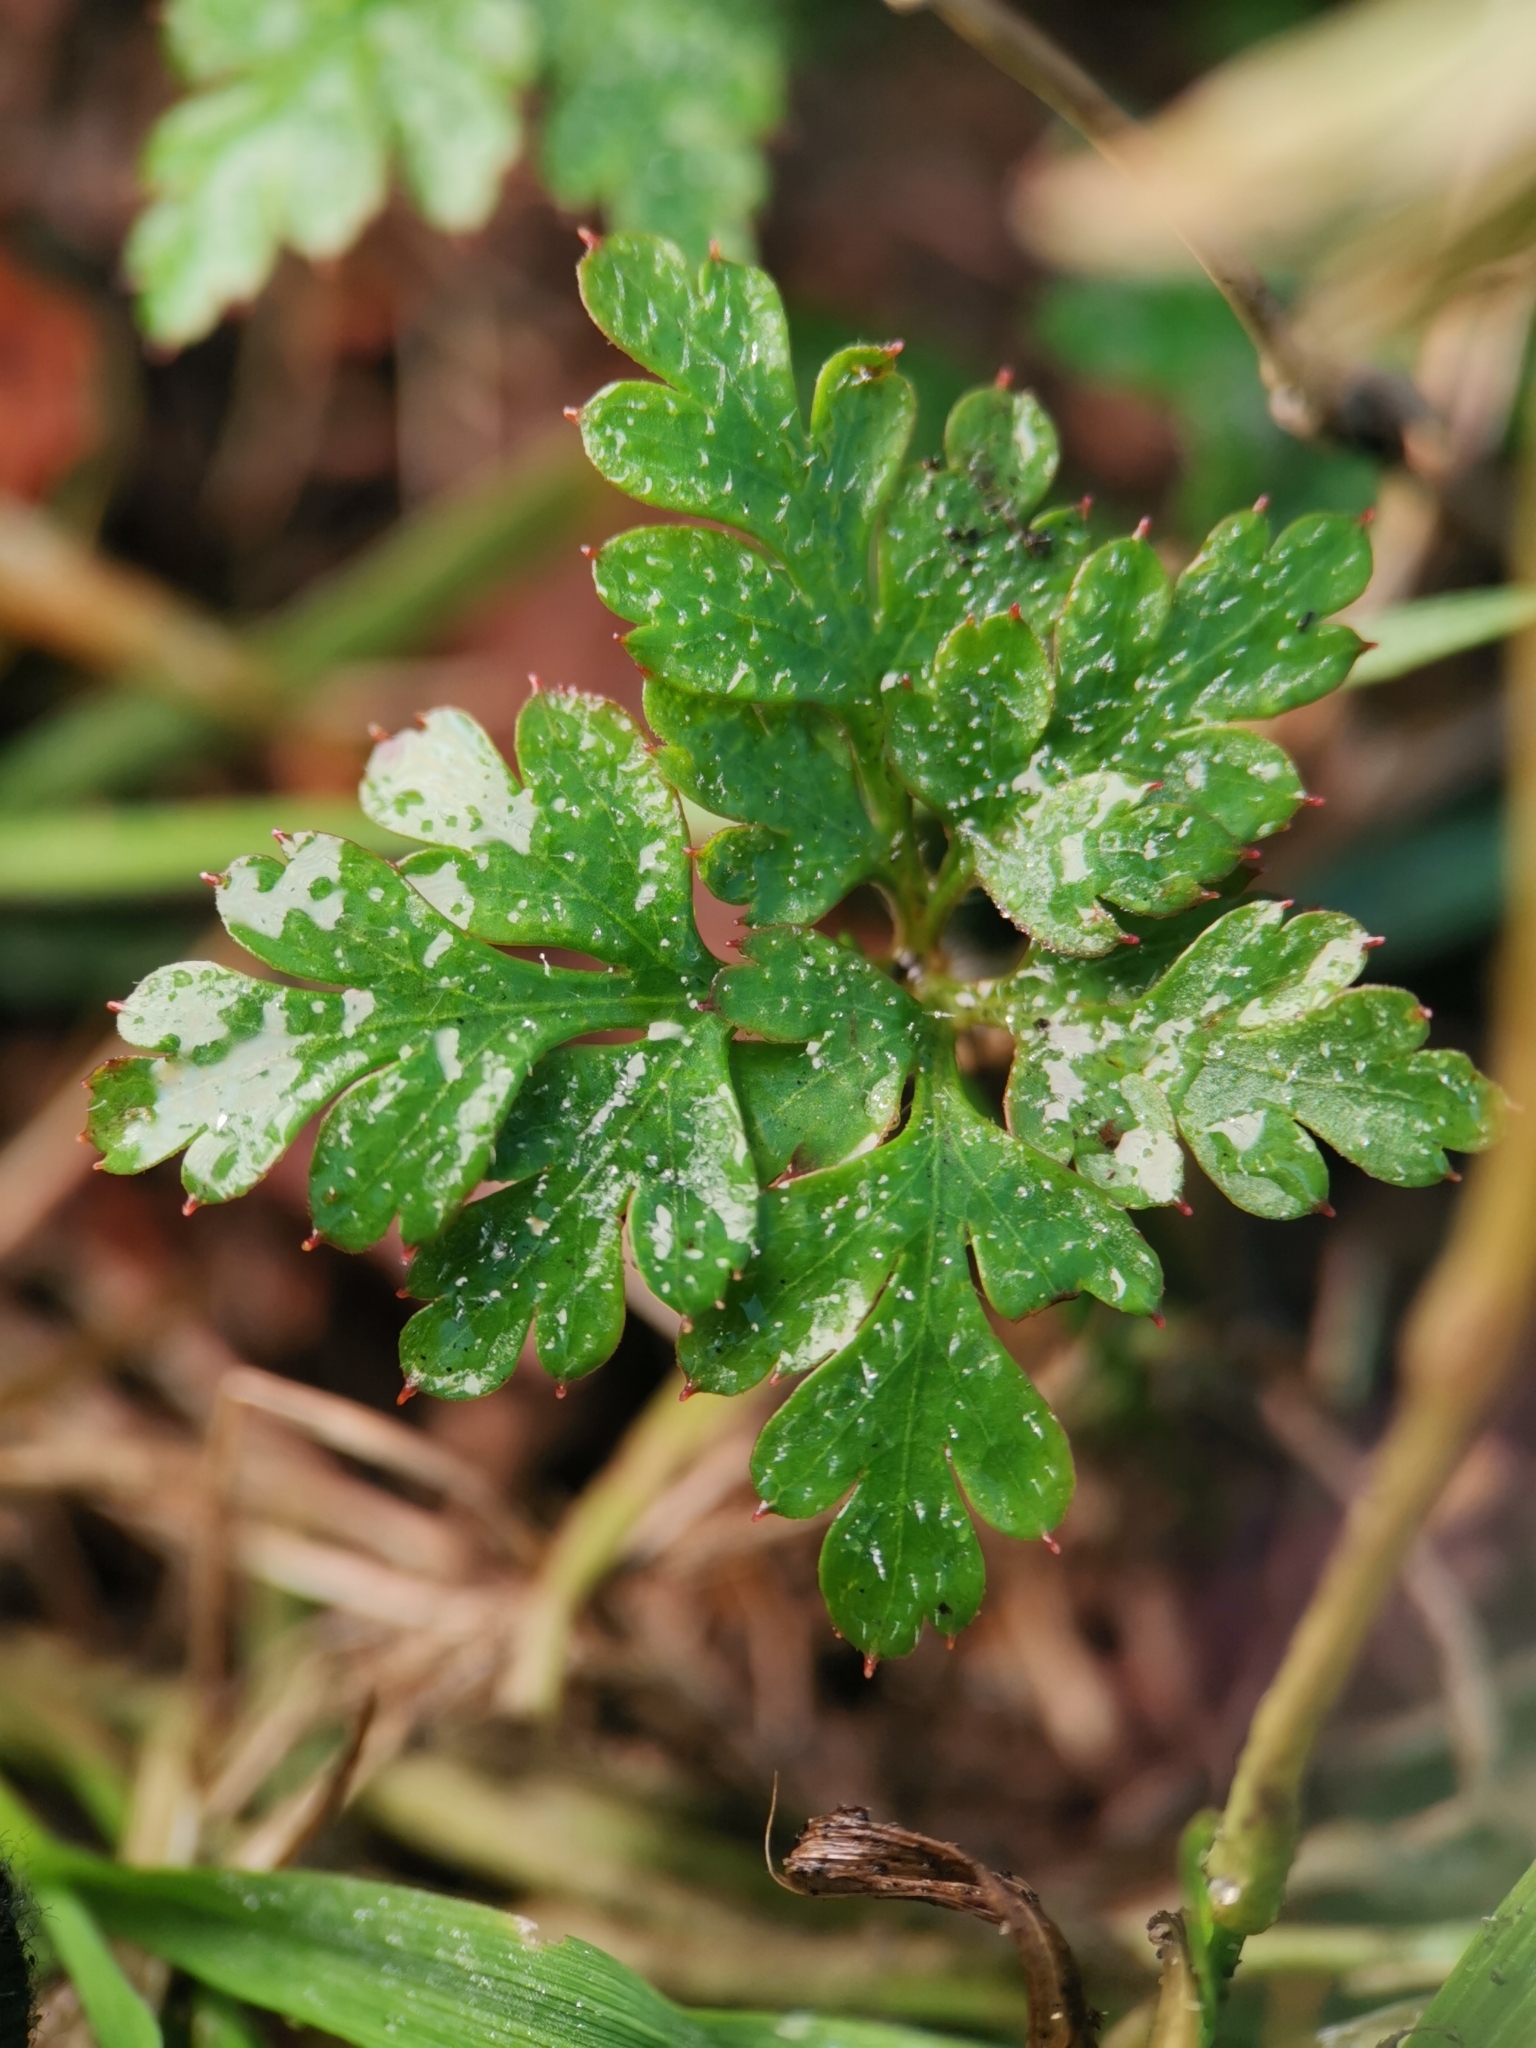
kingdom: Plantae
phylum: Tracheophyta
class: Magnoliopsida
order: Geraniales
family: Geraniaceae
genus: Geranium
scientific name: Geranium robertianum
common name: Herb-robert
